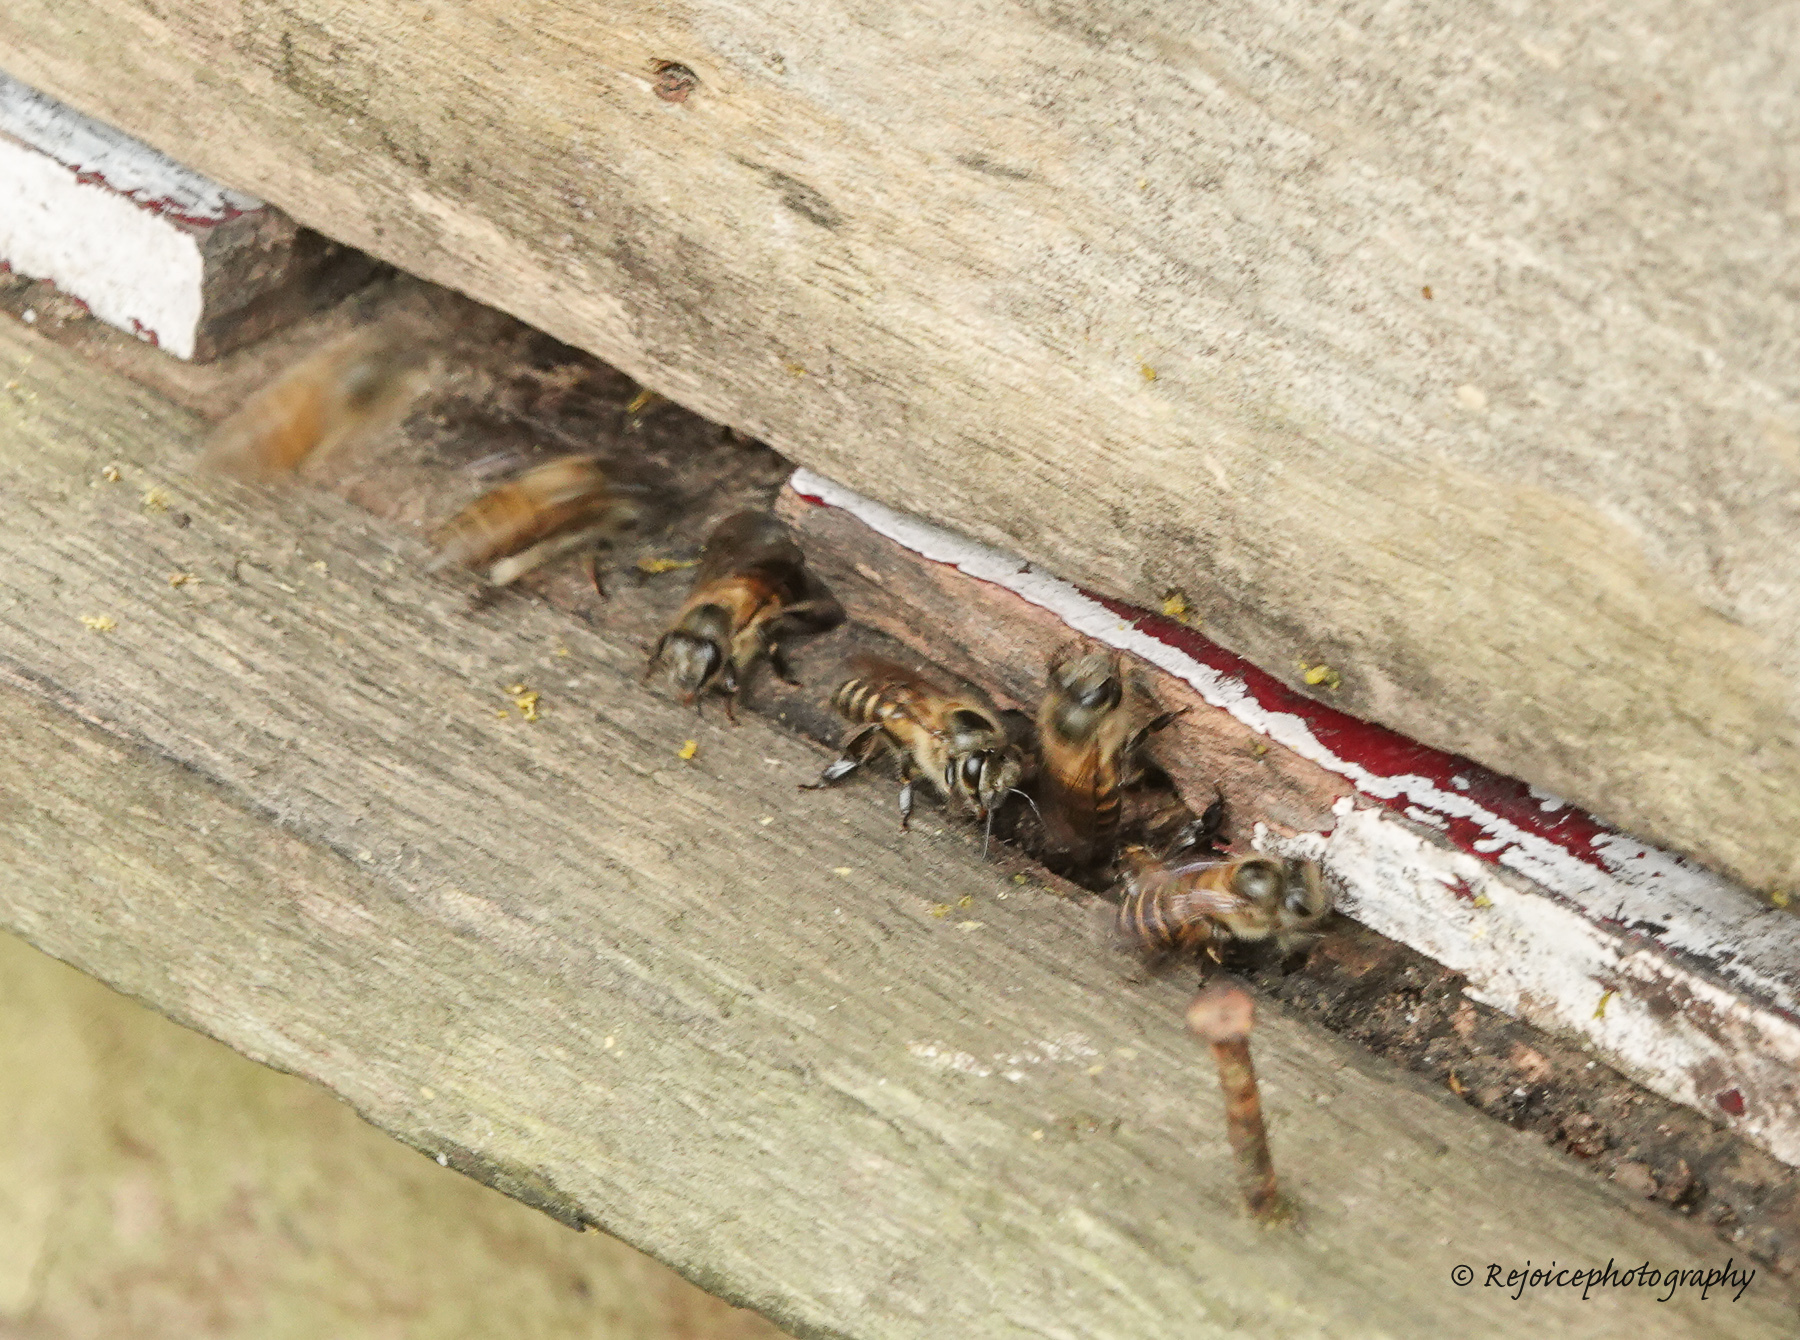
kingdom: Animalia
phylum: Arthropoda
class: Insecta
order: Hymenoptera
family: Apidae
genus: Apis
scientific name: Apis cerana
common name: Honey bee
